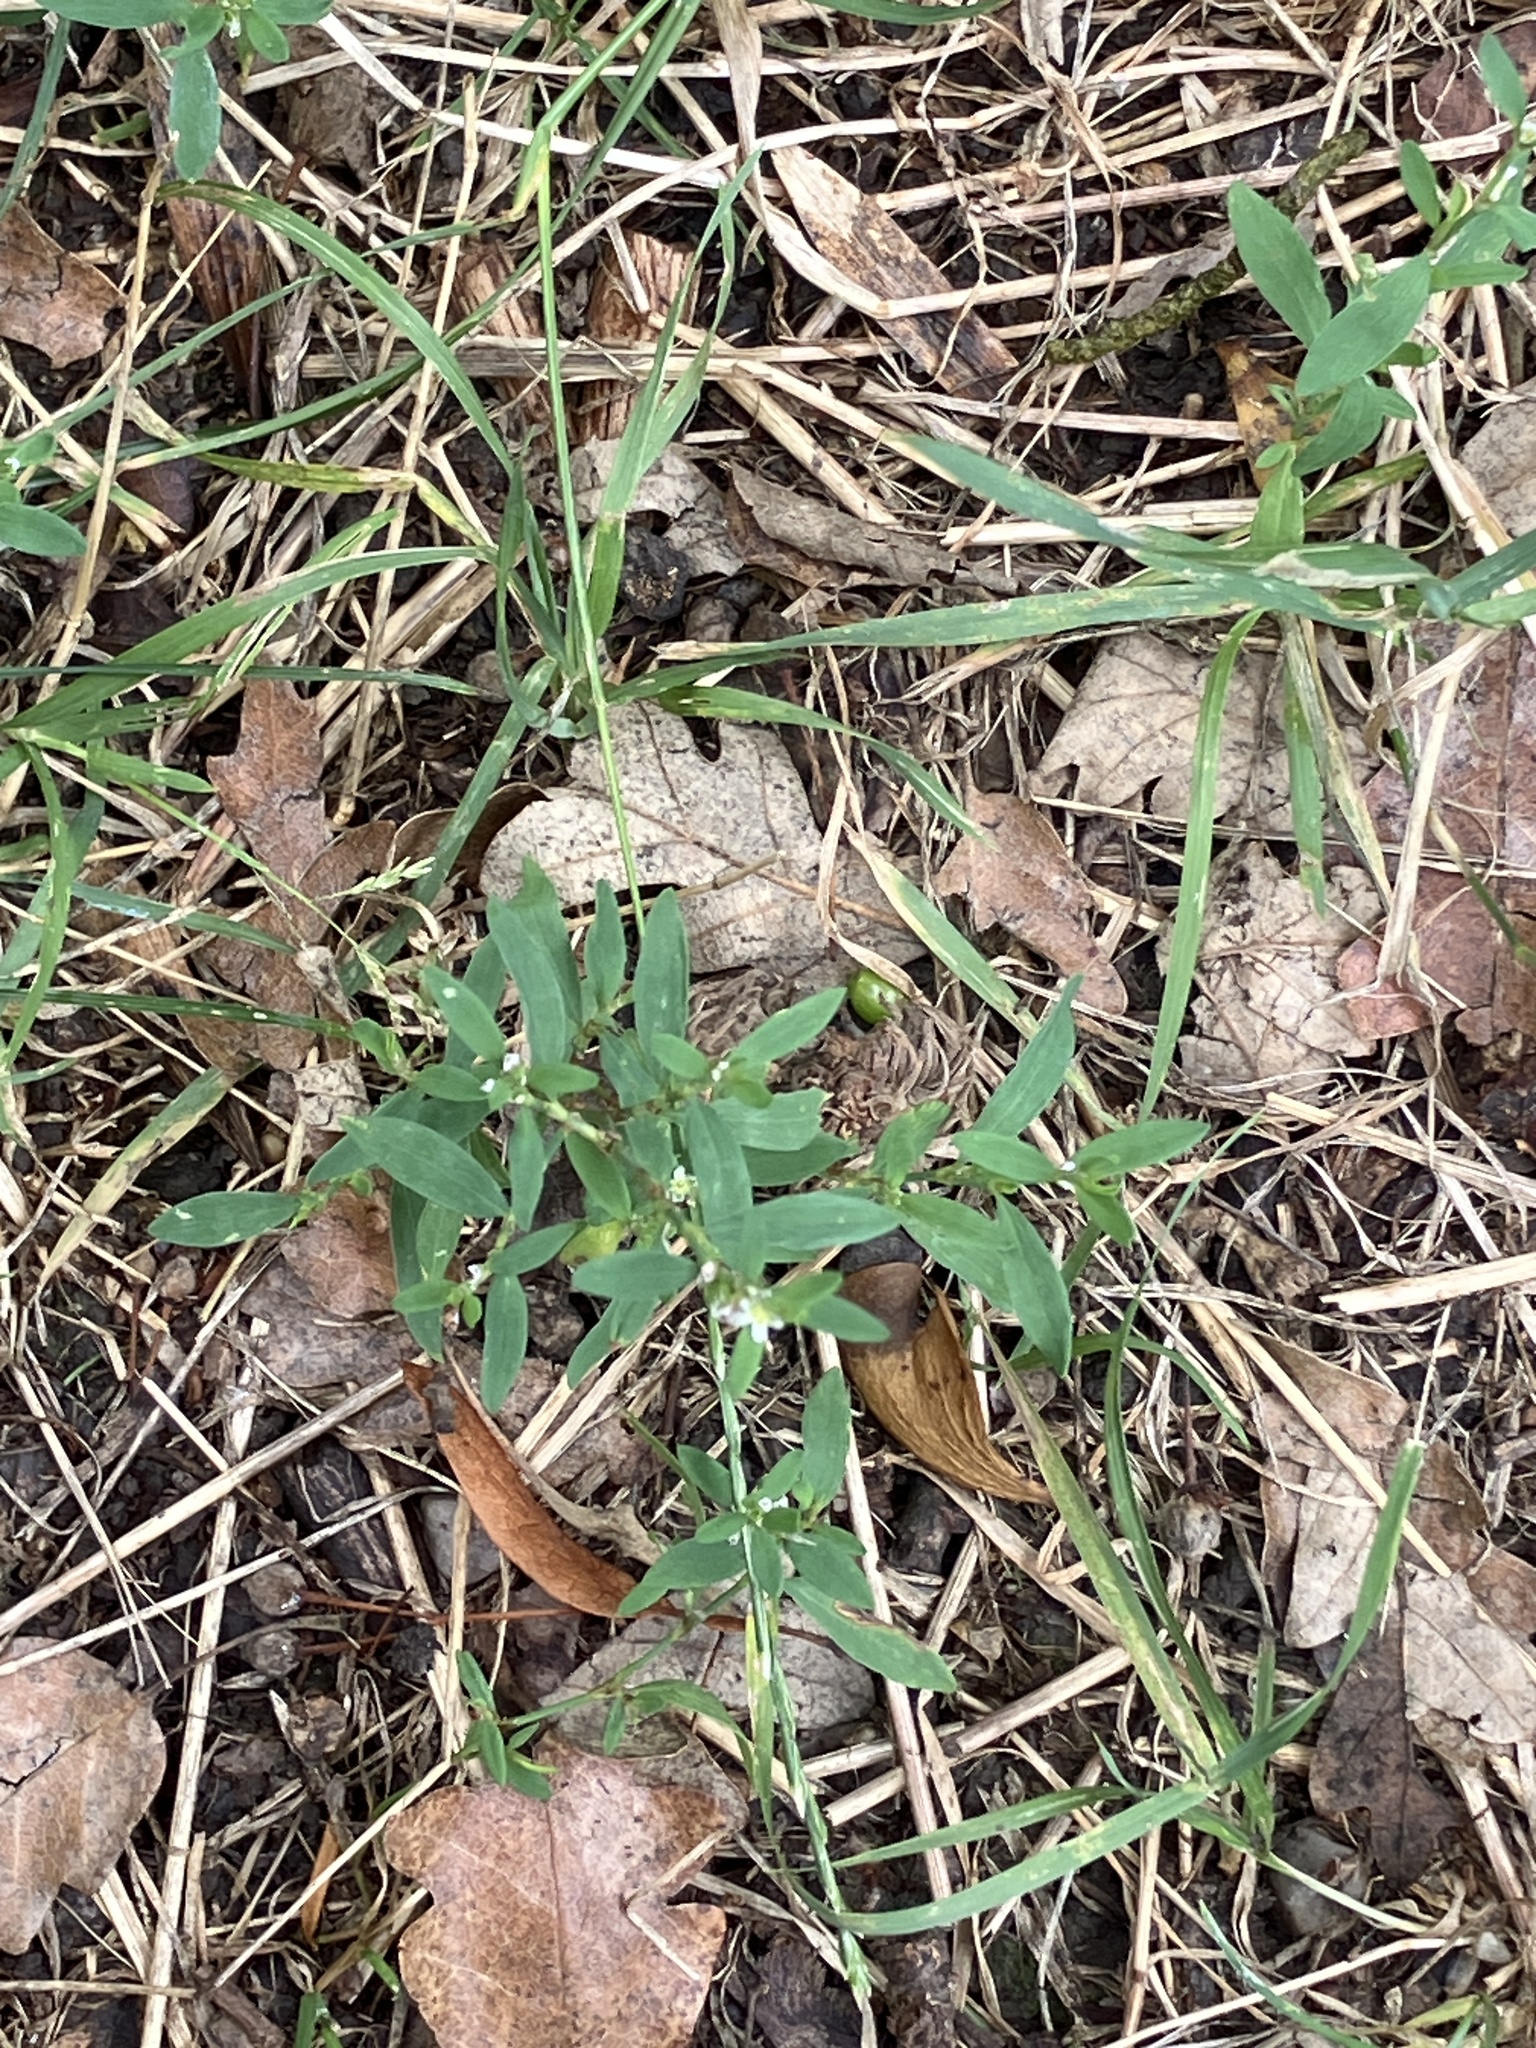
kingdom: Plantae
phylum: Tracheophyta
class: Magnoliopsida
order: Caryophyllales
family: Polygonaceae
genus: Polygonum
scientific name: Polygonum aviculare
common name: Prostrate knotweed
